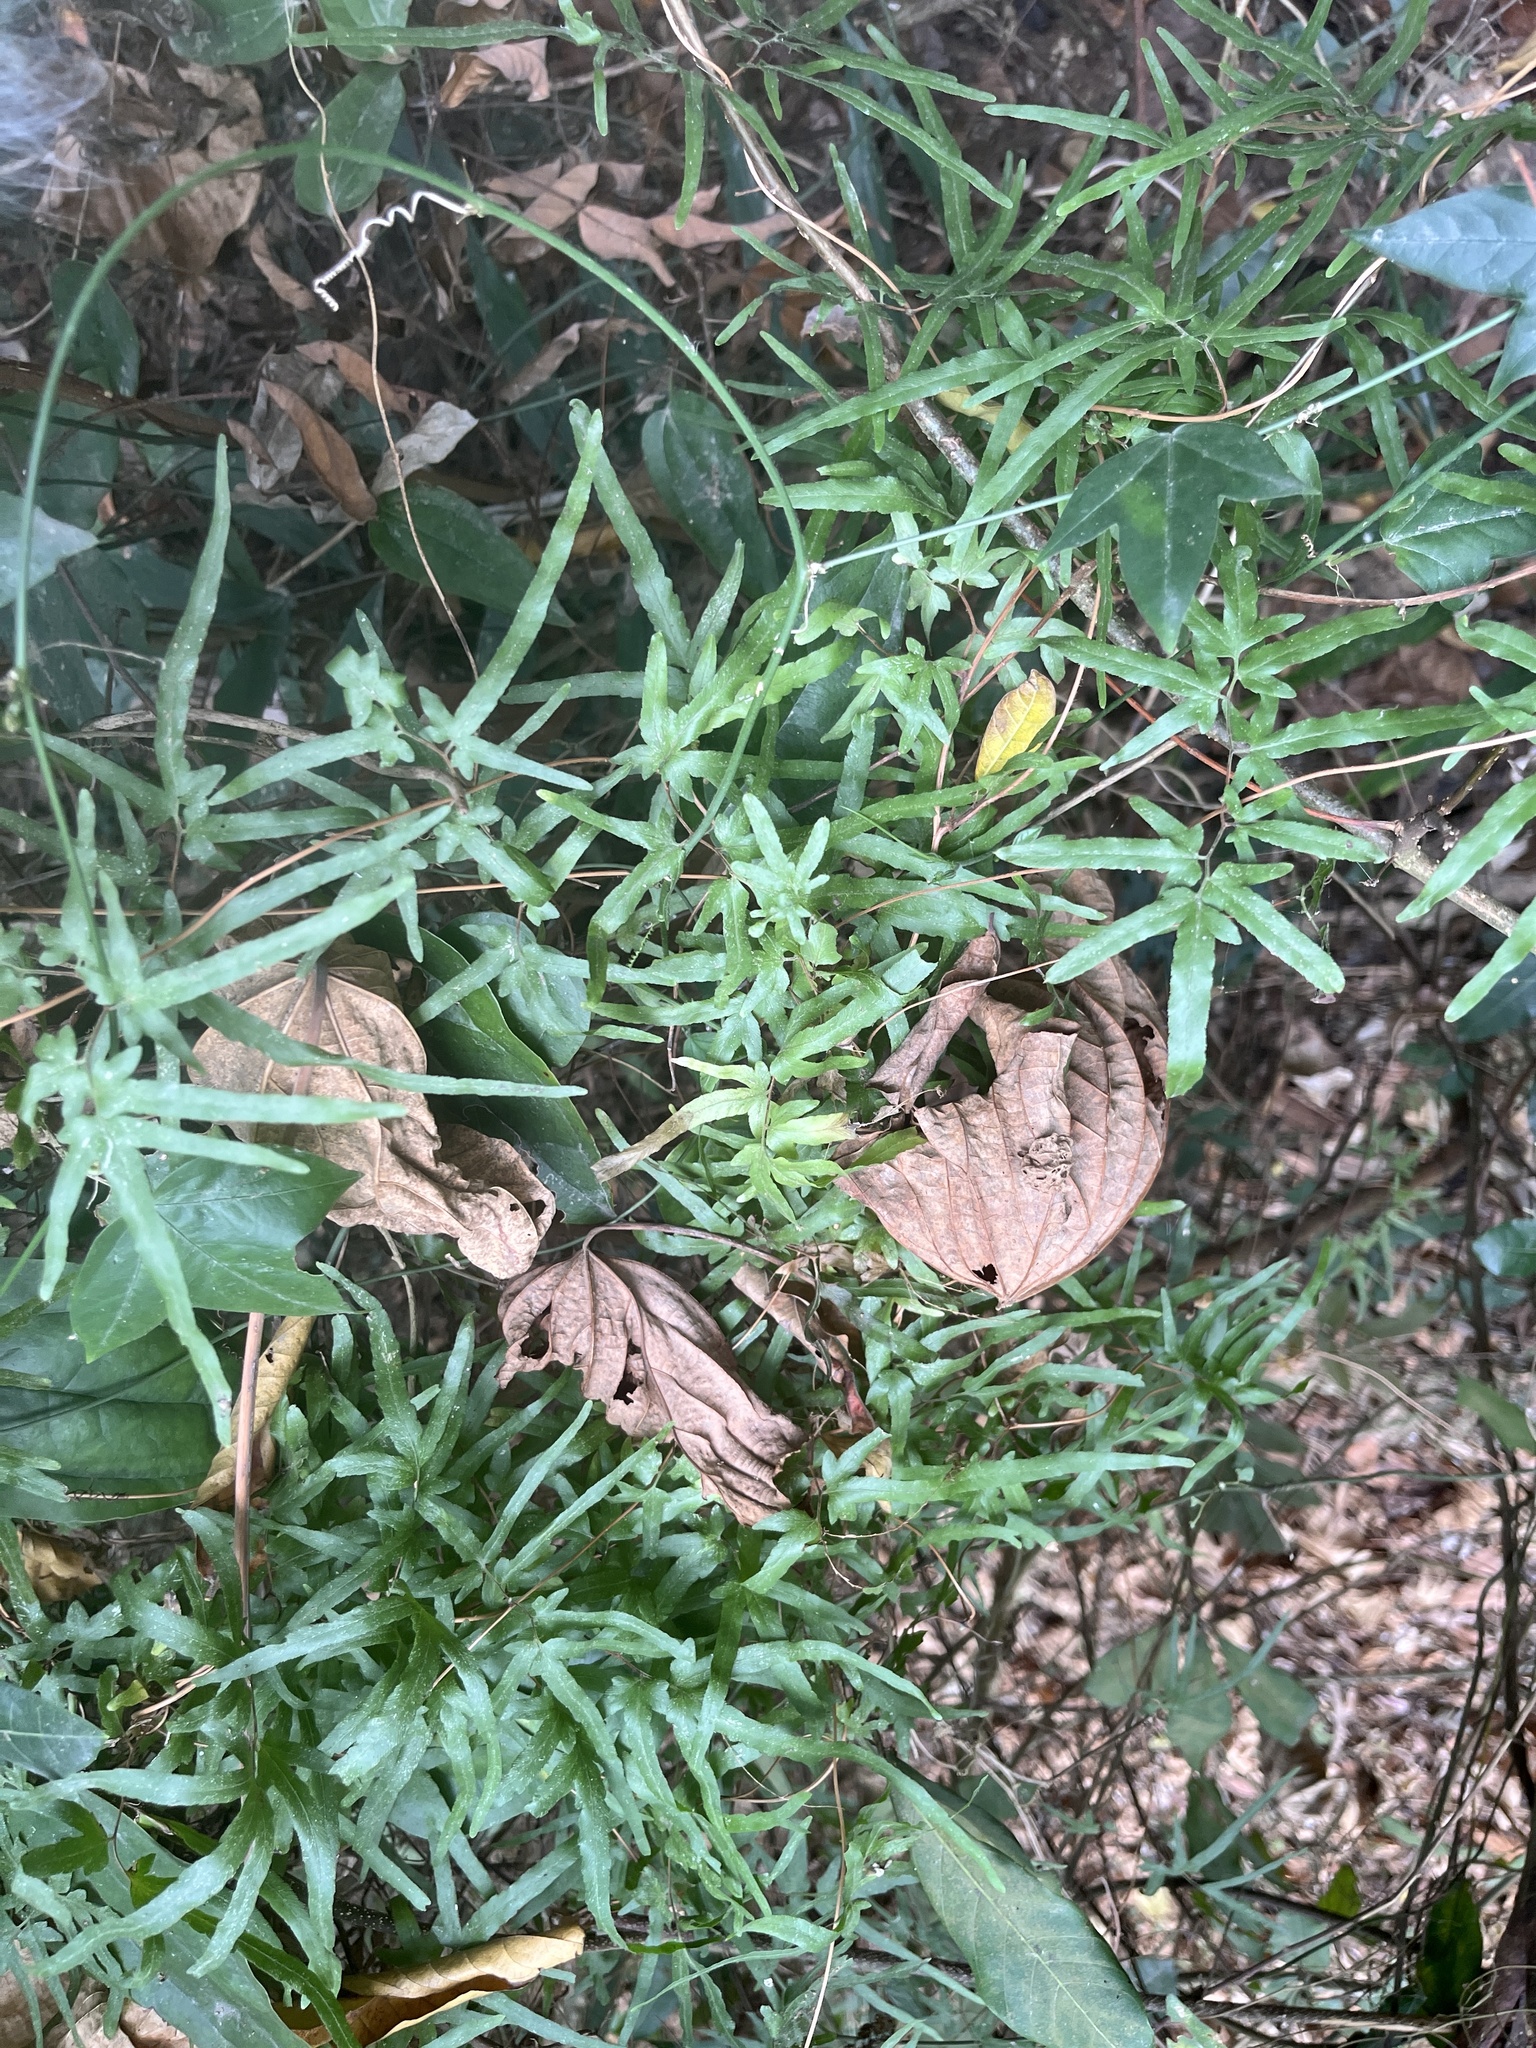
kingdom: Plantae
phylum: Tracheophyta
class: Polypodiopsida
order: Schizaeales
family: Lygodiaceae
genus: Lygodium
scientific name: Lygodium japonicum
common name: Japanese climbing fern
